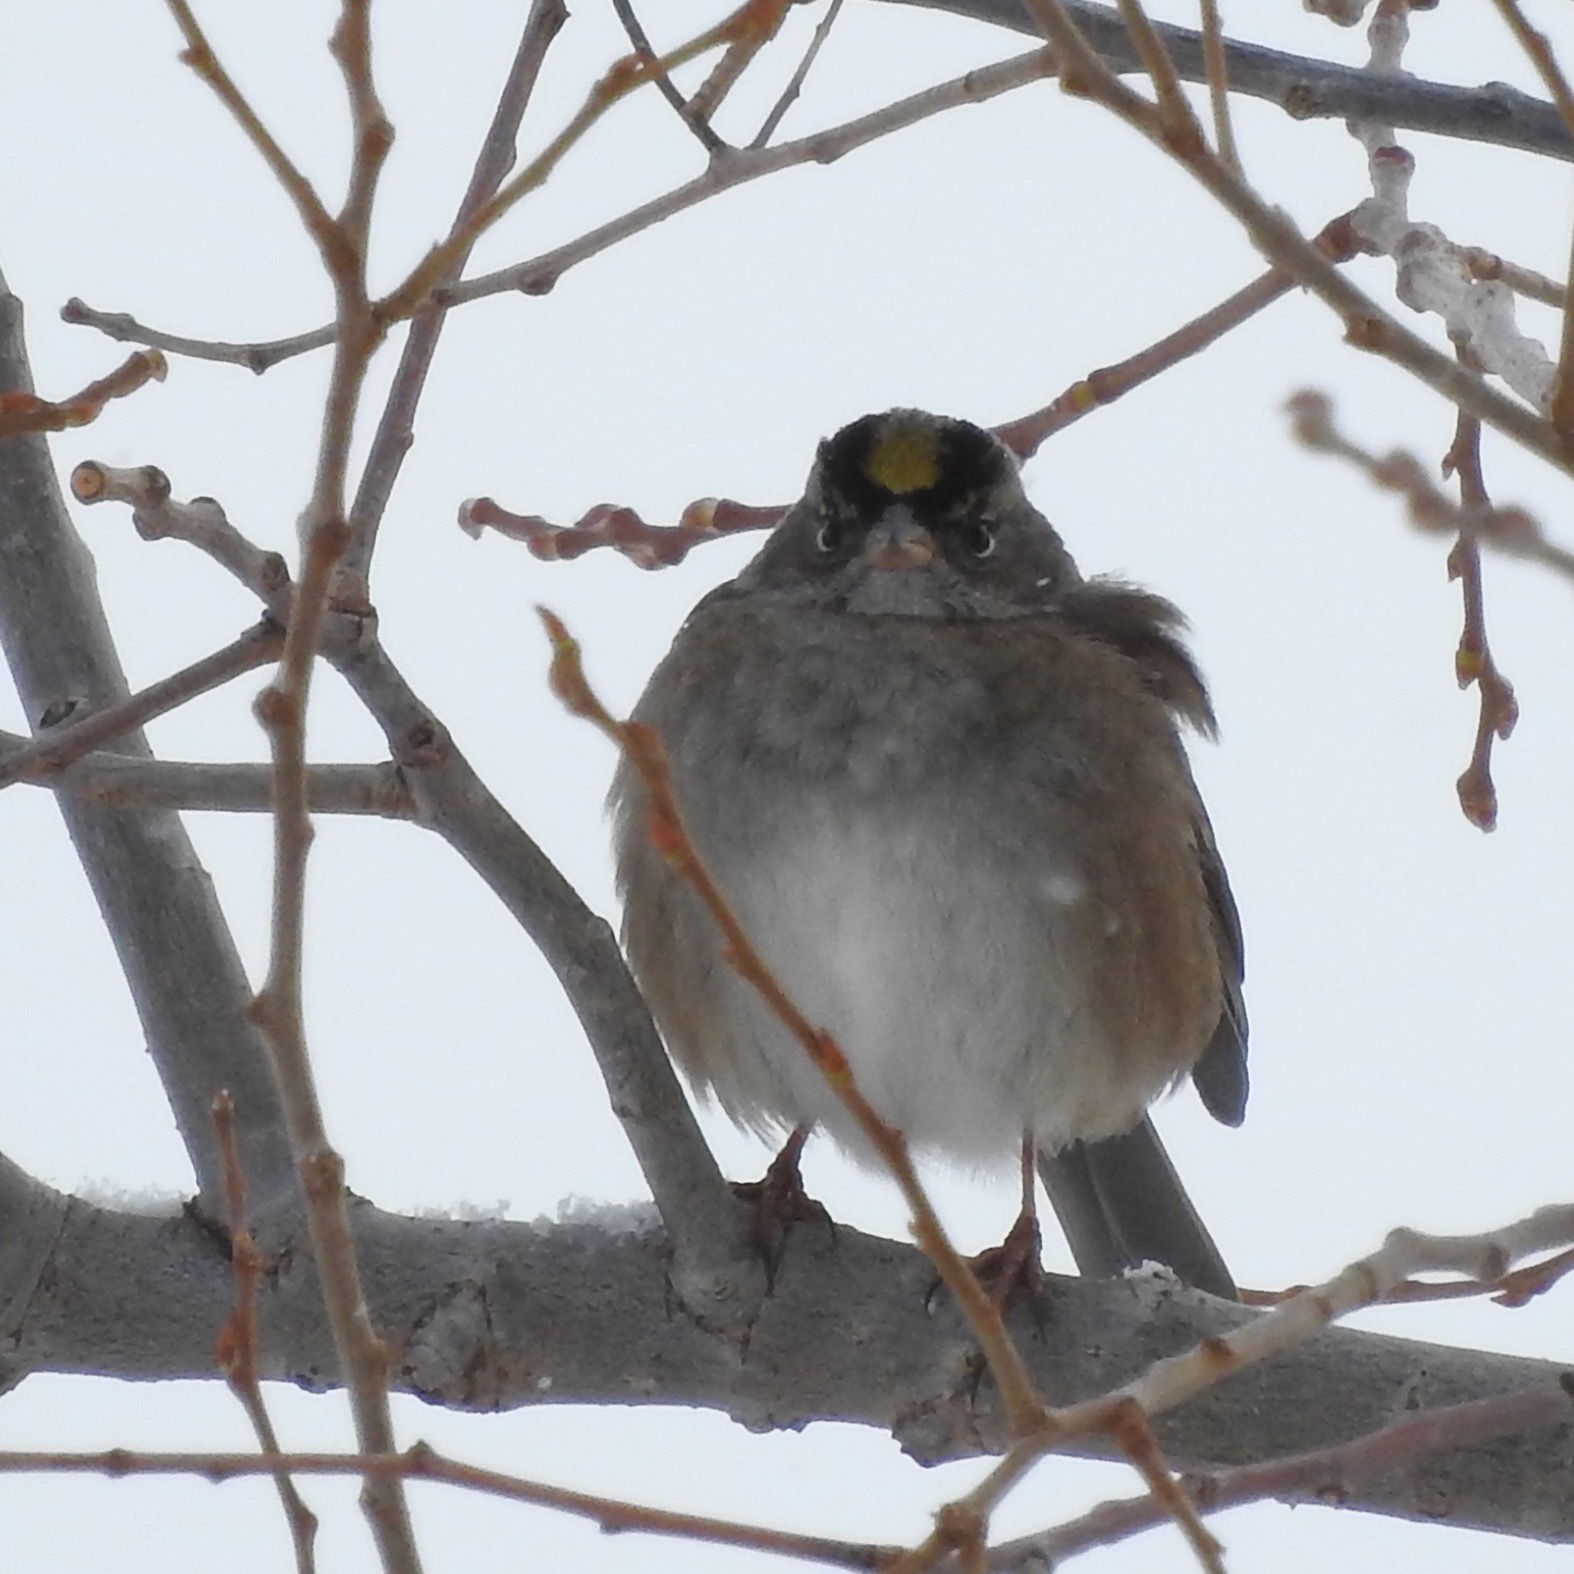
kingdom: Animalia
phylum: Chordata
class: Aves
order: Passeriformes
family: Passerellidae
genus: Zonotrichia
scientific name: Zonotrichia atricapilla
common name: Golden-crowned sparrow
